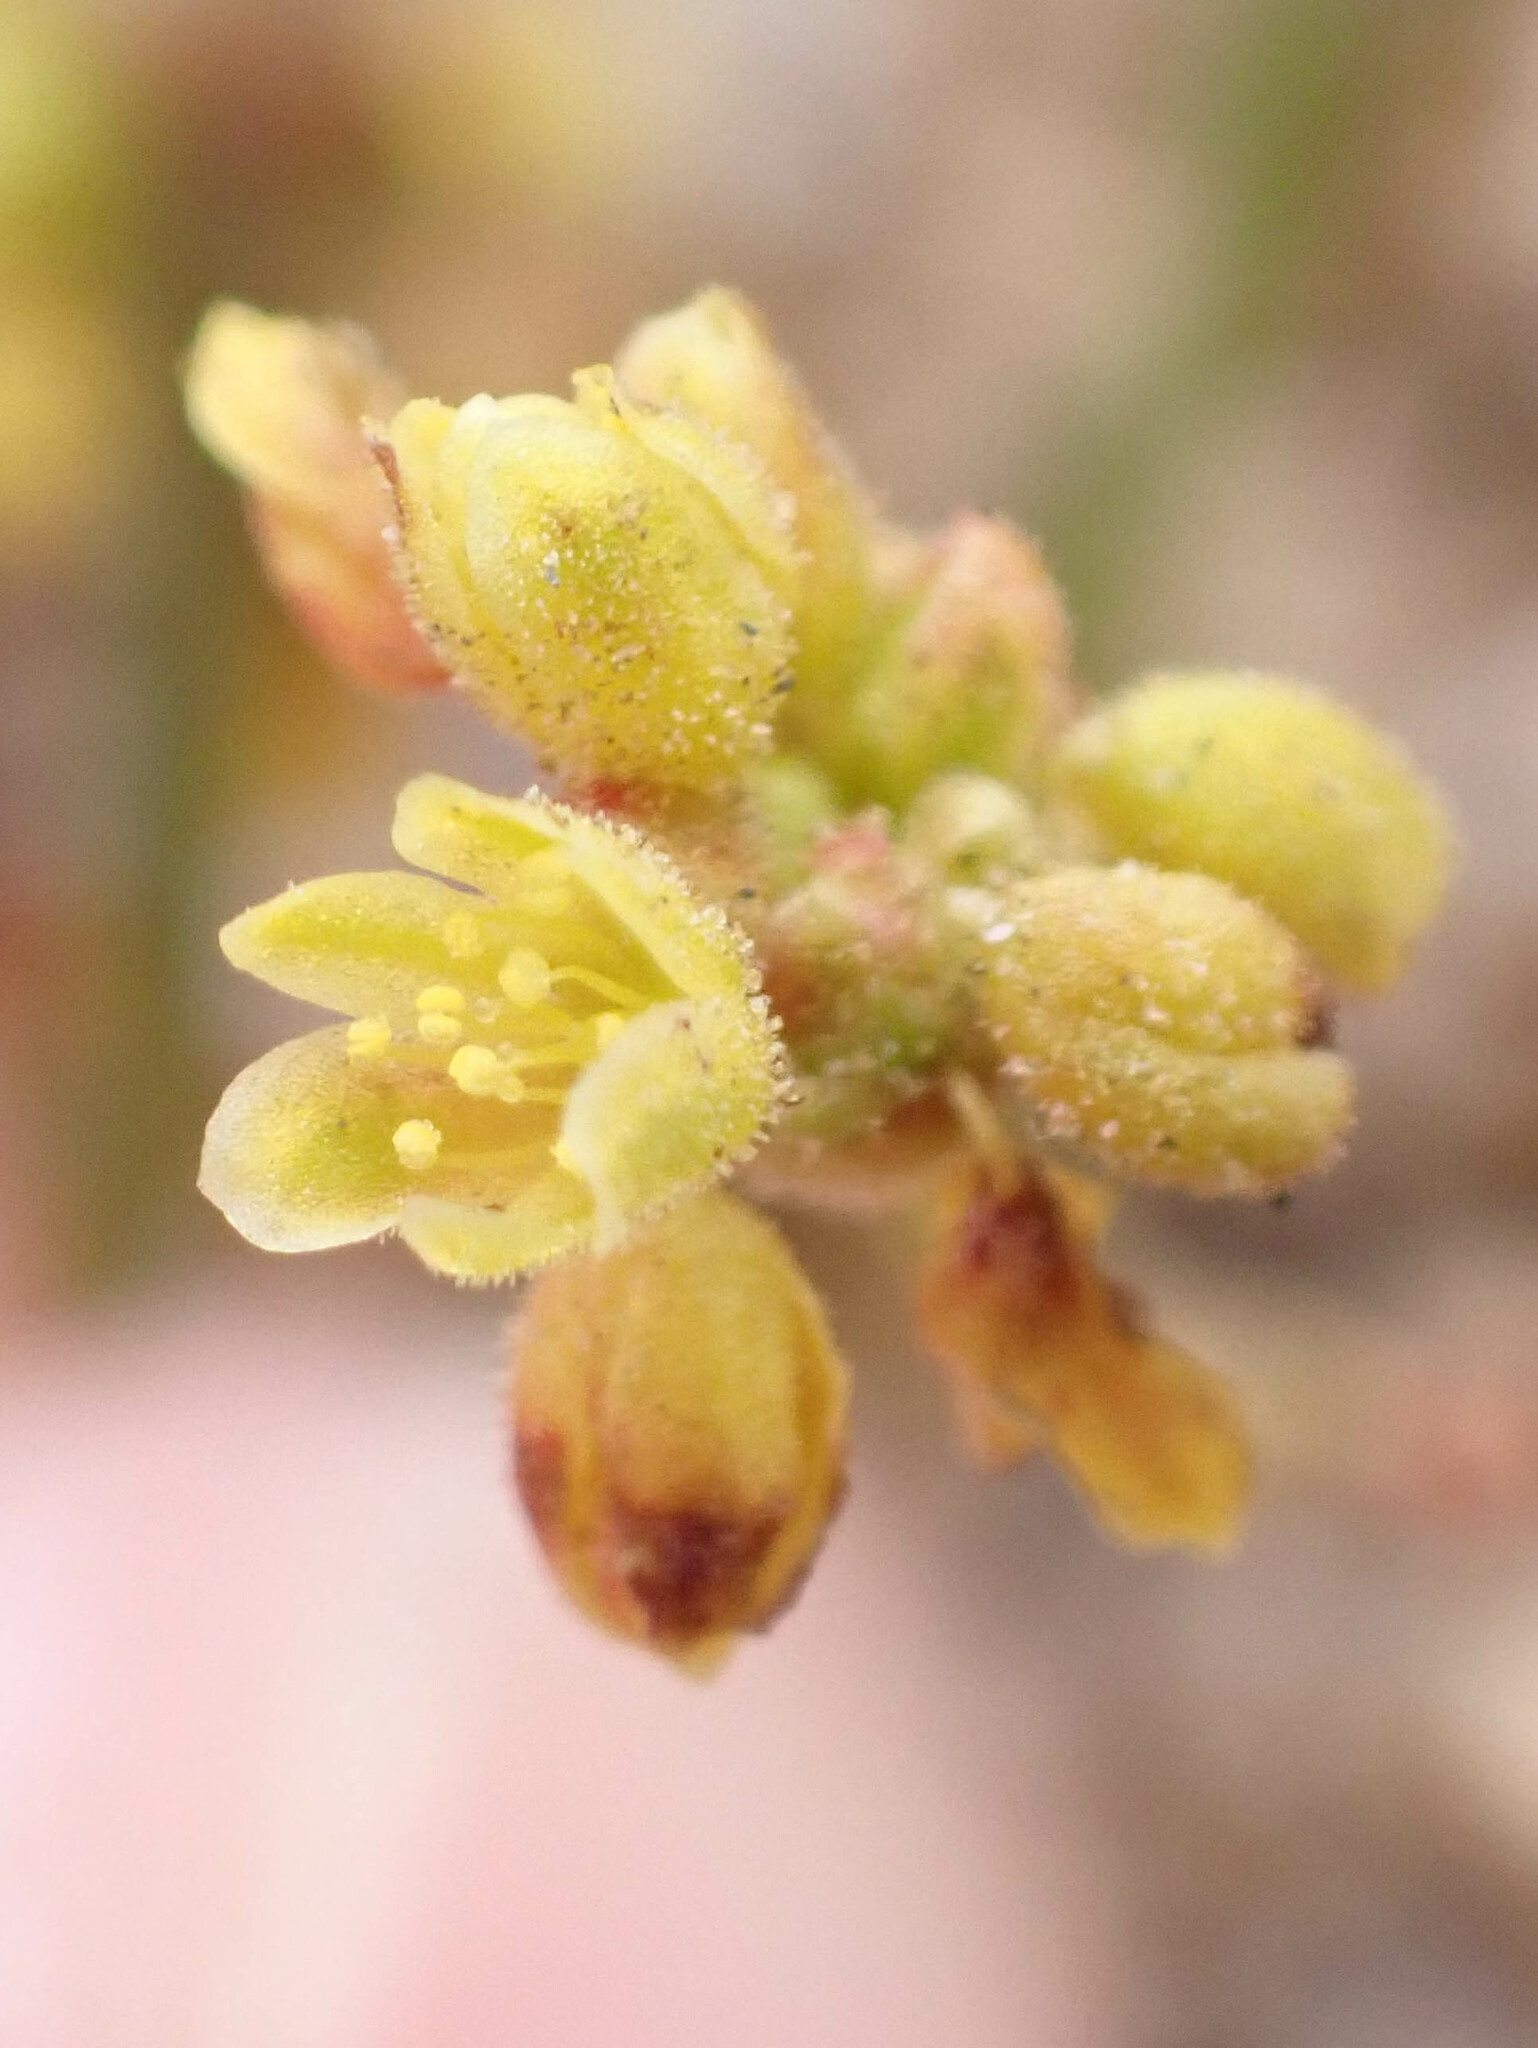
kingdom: Plantae
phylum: Tracheophyta
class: Magnoliopsida
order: Caryophyllales
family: Polygonaceae
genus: Eriogonum
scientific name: Eriogonum pusillum
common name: Yellow turbans
